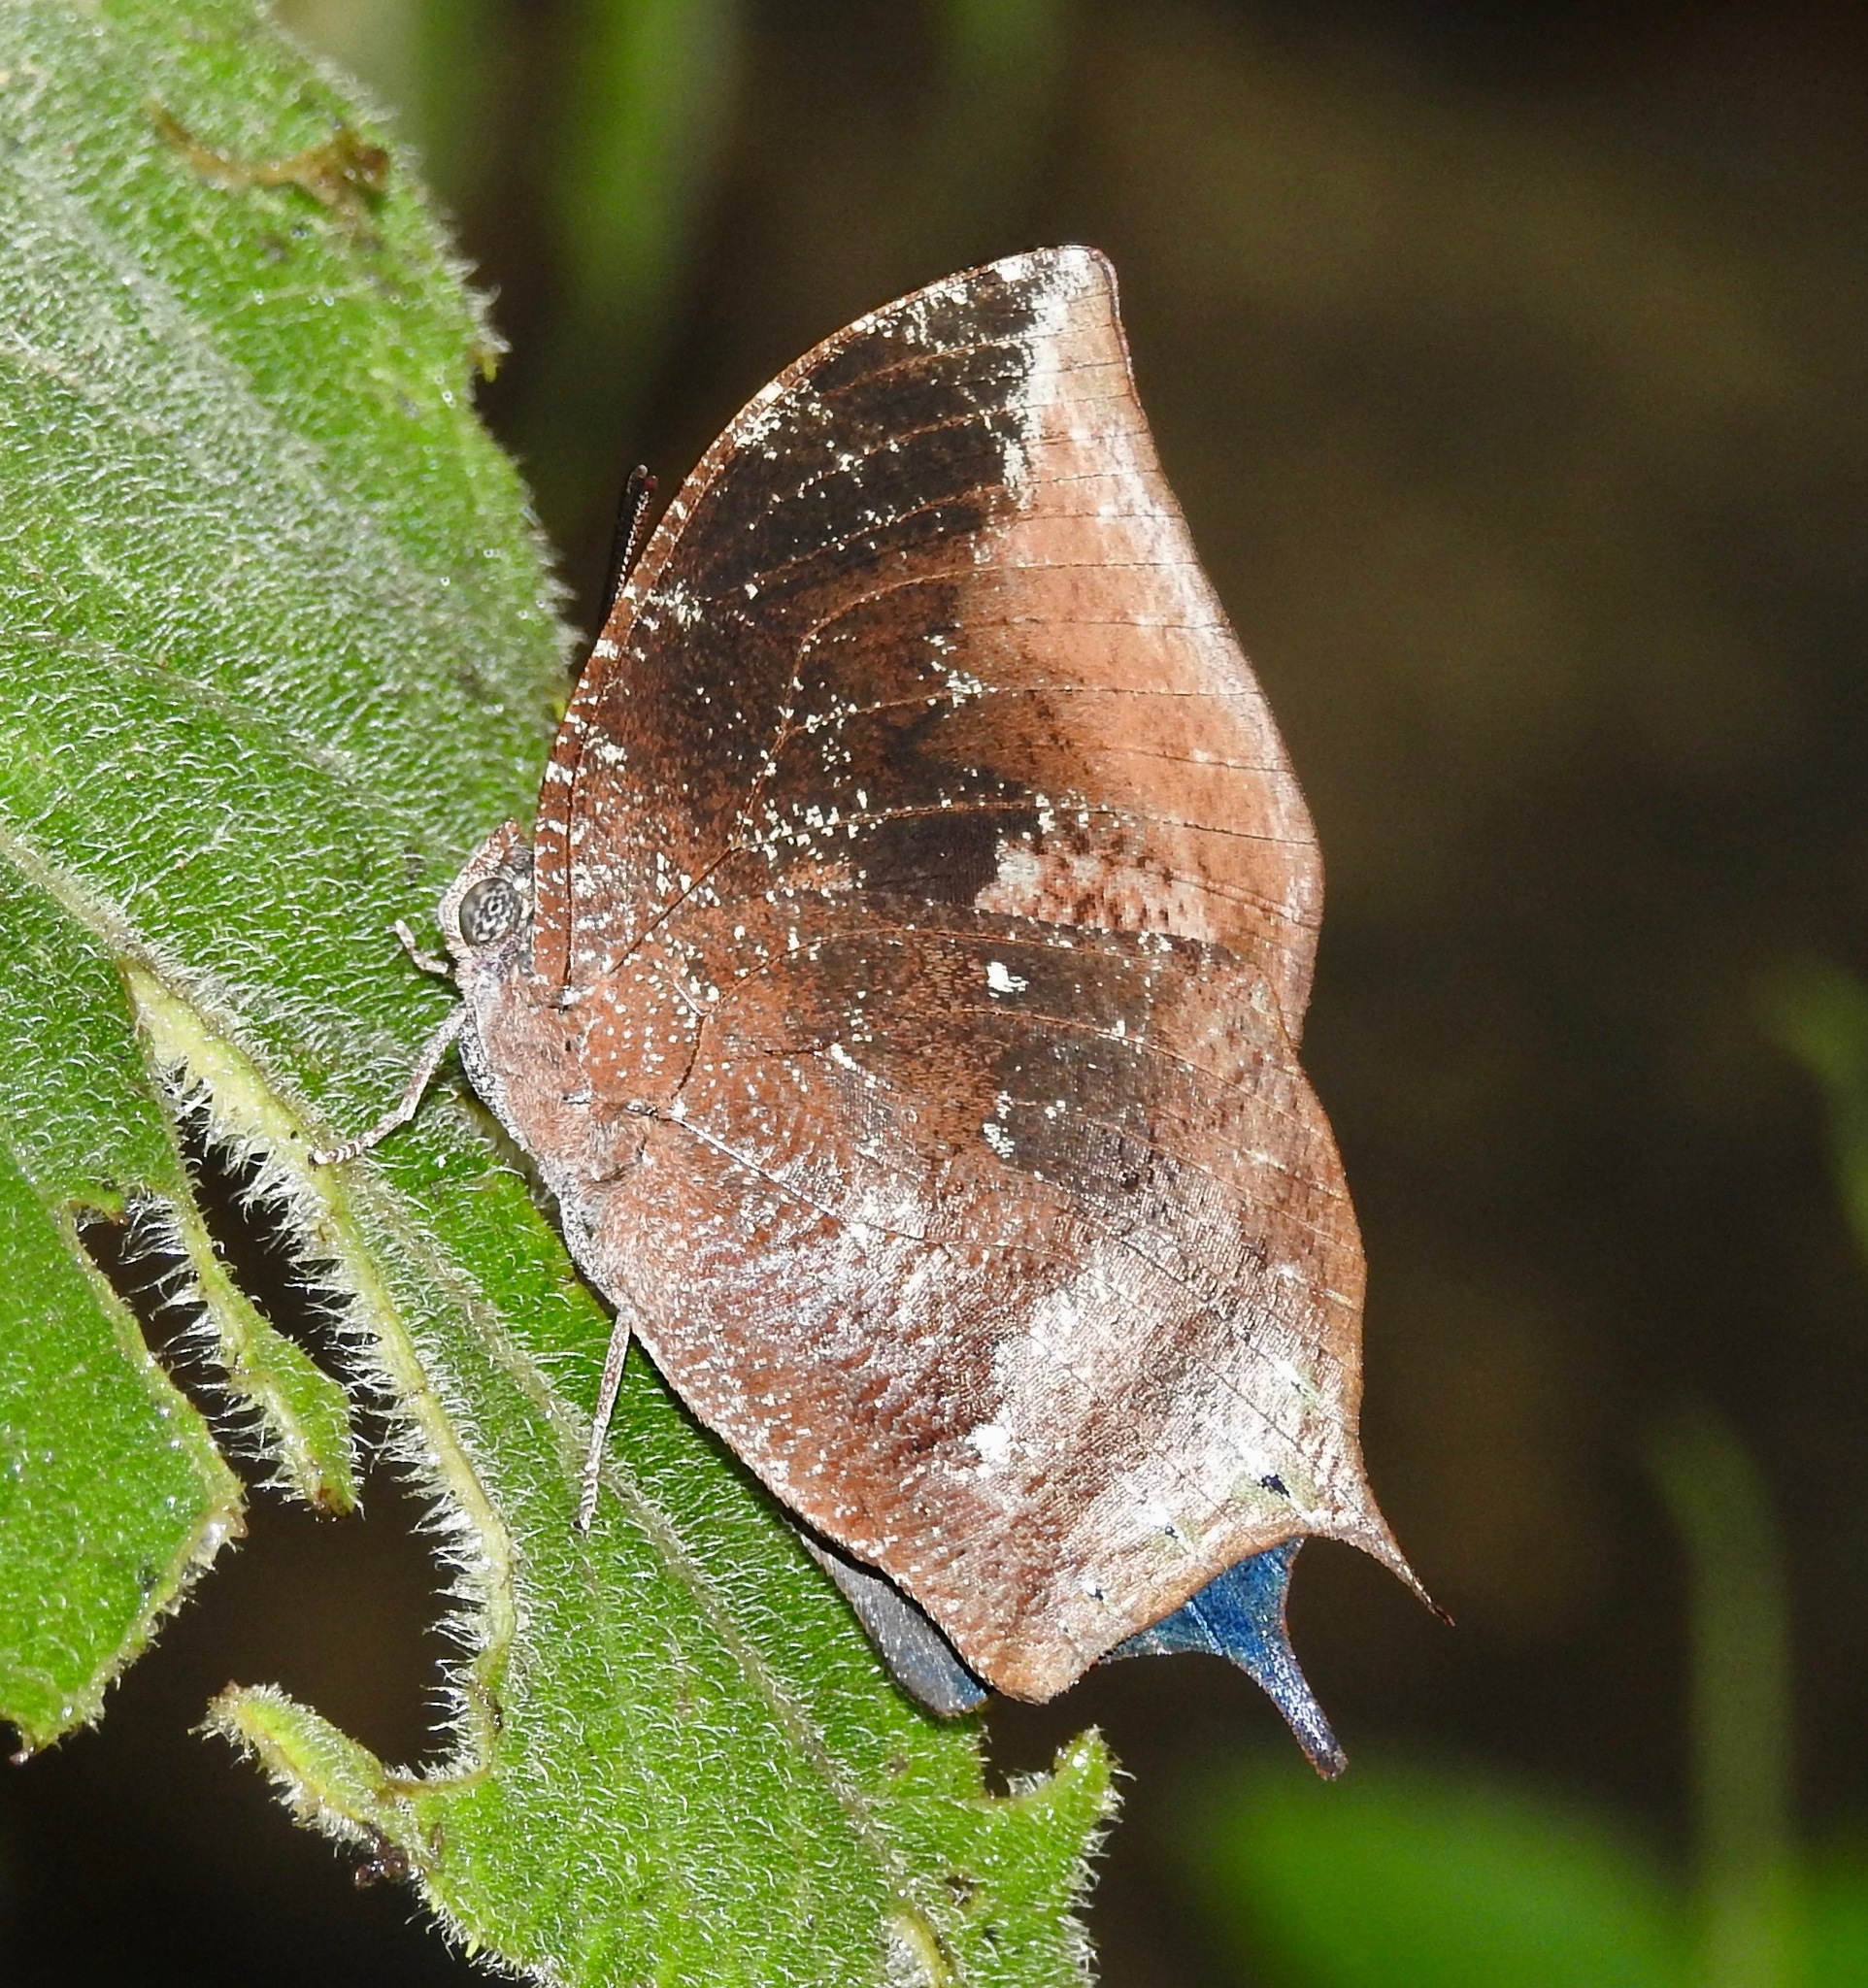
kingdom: Animalia
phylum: Arthropoda
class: Insecta
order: Lepidoptera
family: Nymphalidae
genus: Memphis
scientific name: Memphis
